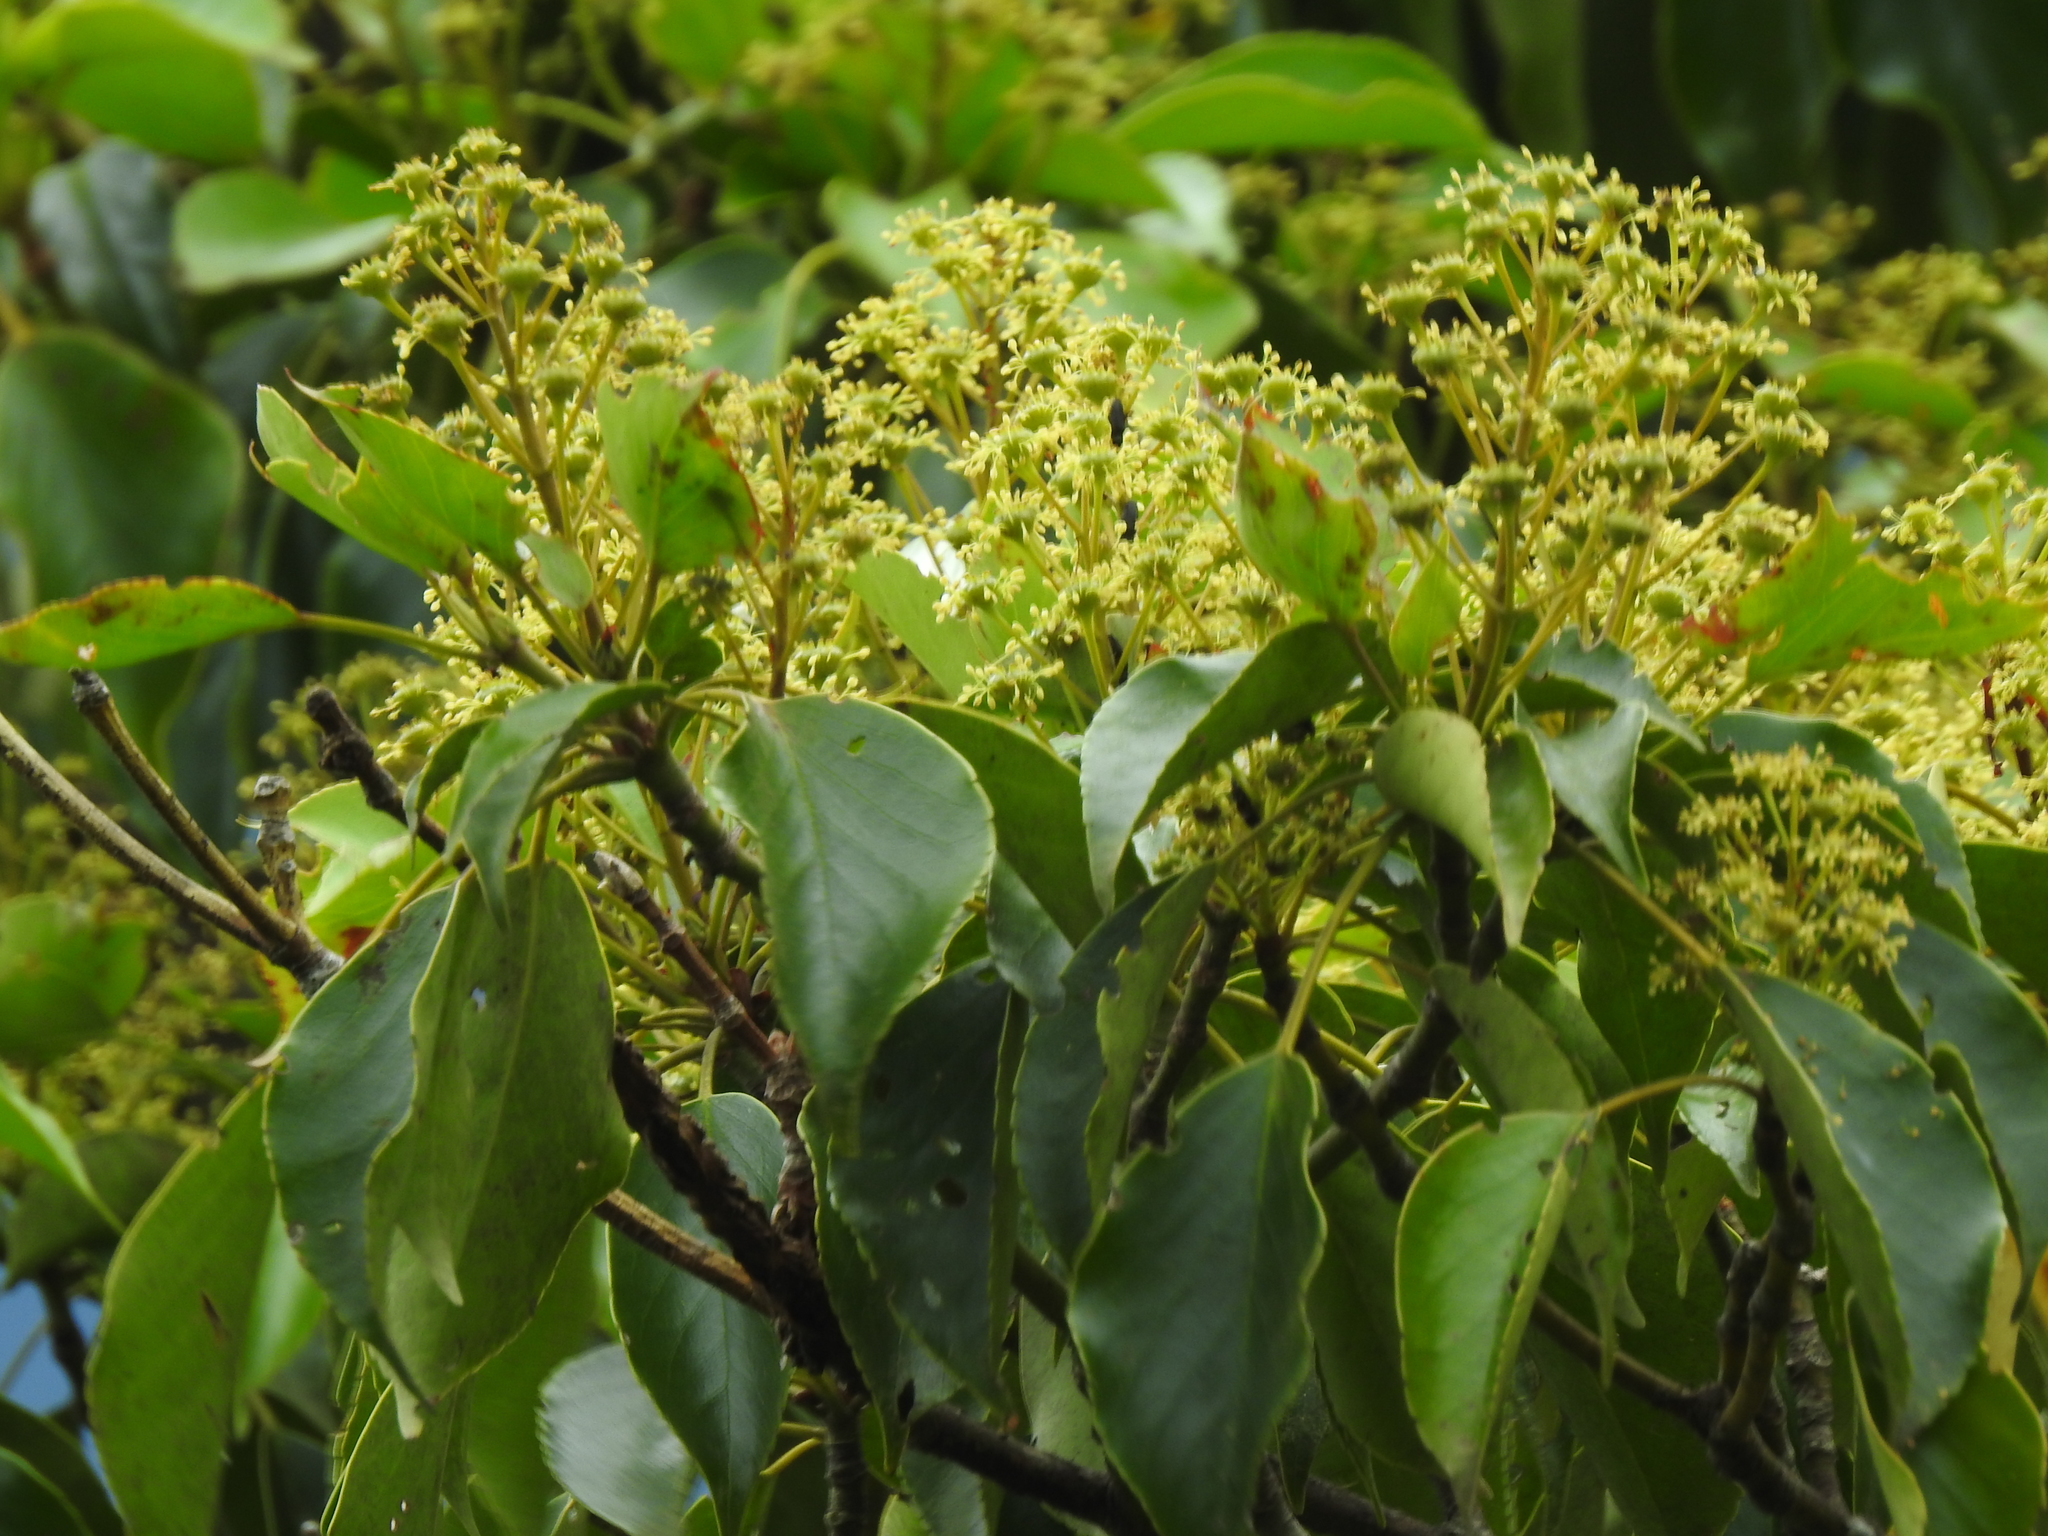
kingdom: Plantae
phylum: Tracheophyta
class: Magnoliopsida
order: Trochodendrales
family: Trochodendraceae
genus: Trochodendron
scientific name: Trochodendron aralioides
